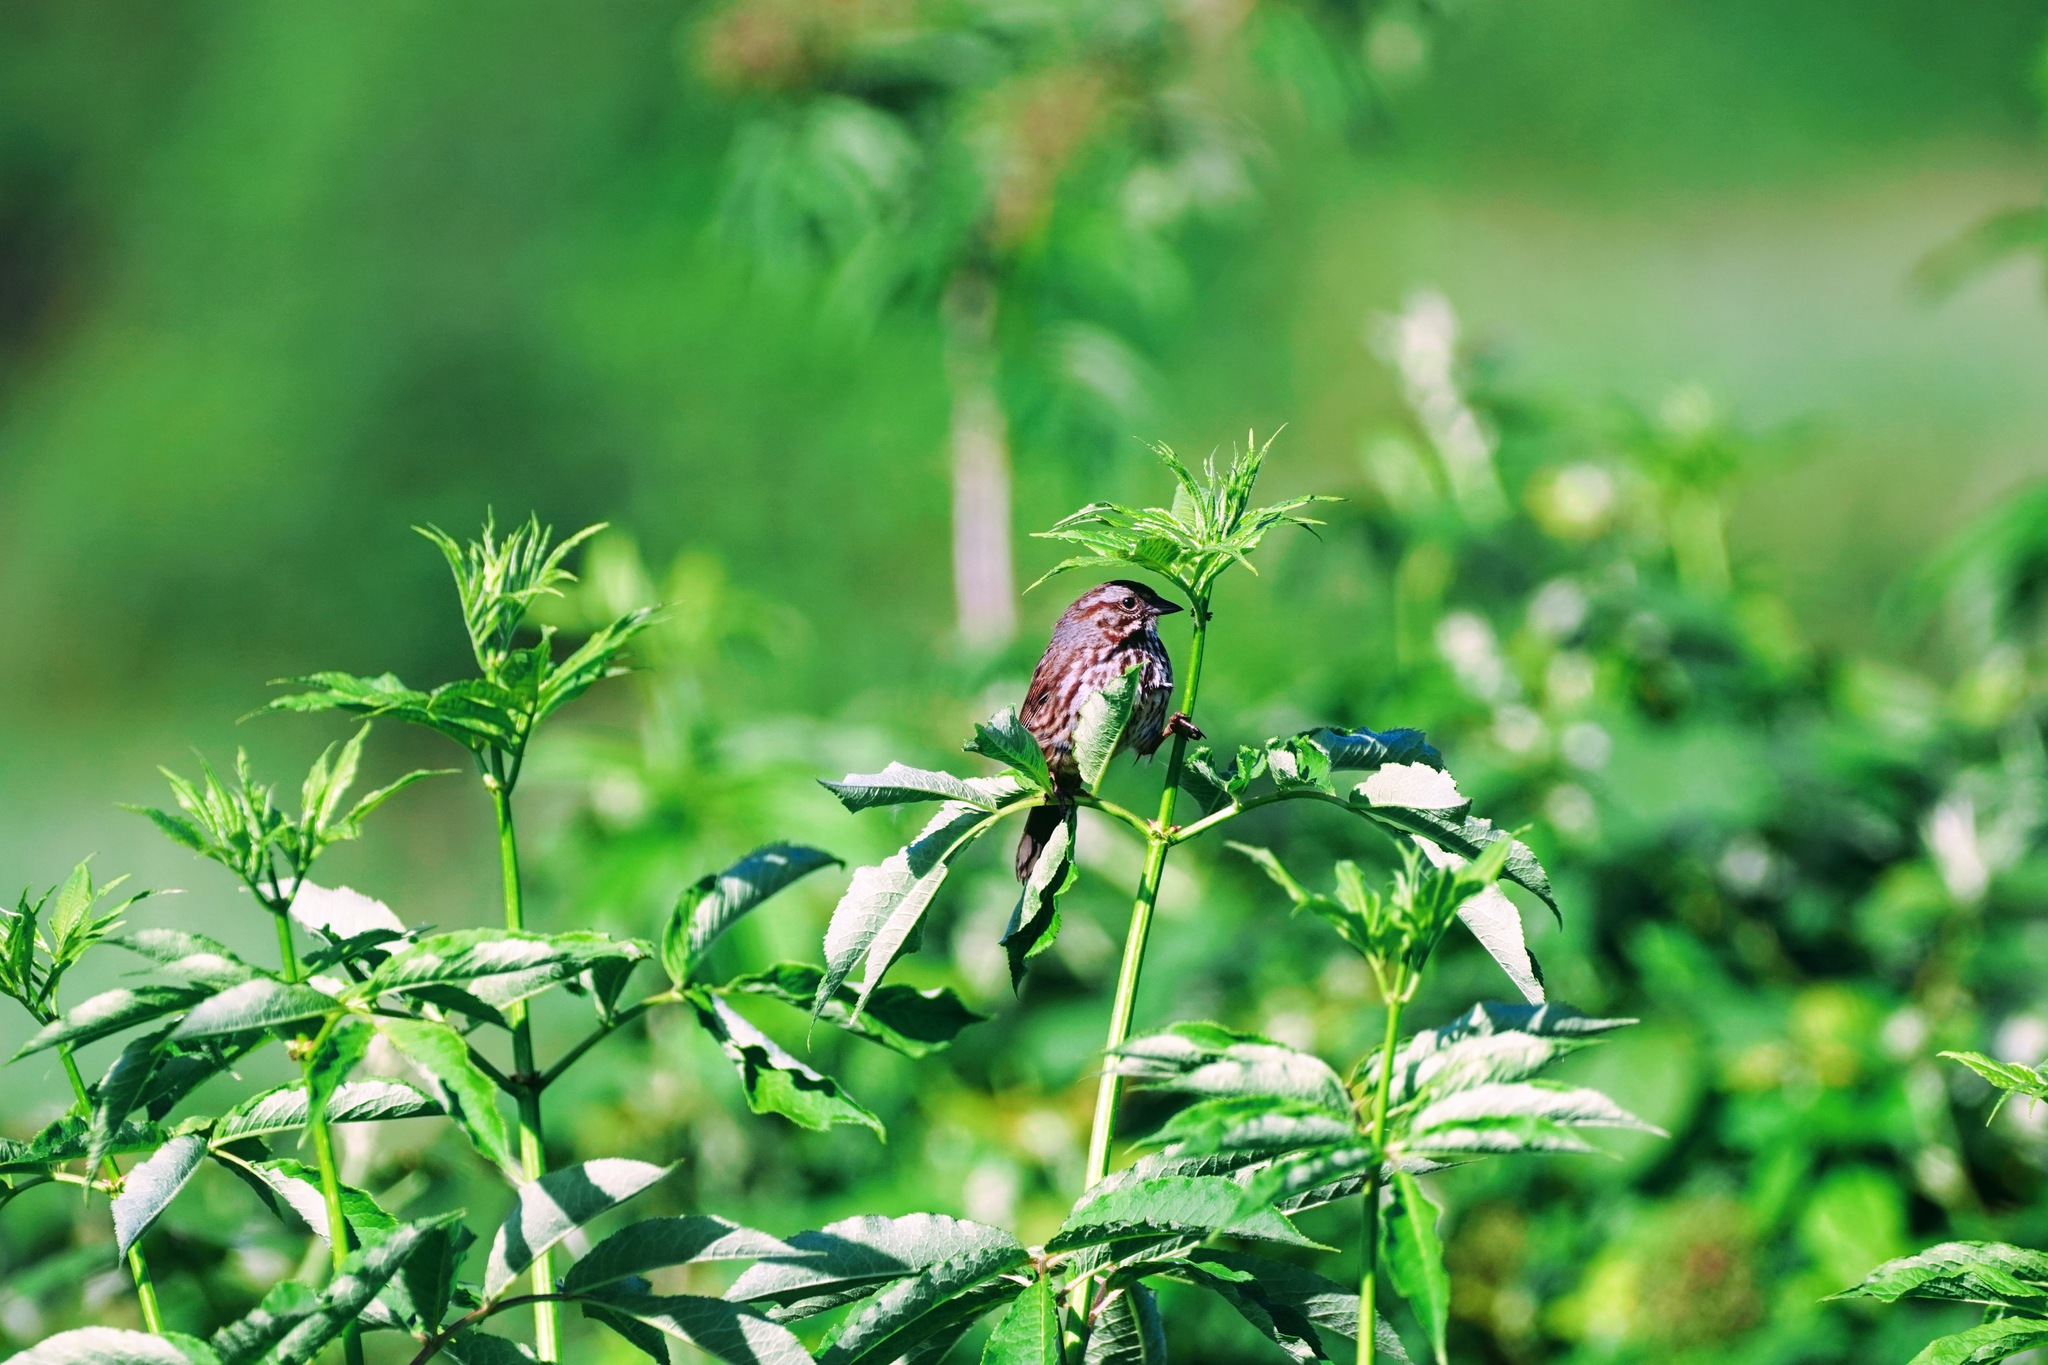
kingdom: Animalia
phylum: Chordata
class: Aves
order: Passeriformes
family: Passerellidae
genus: Melospiza
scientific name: Melospiza melodia
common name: Song sparrow
